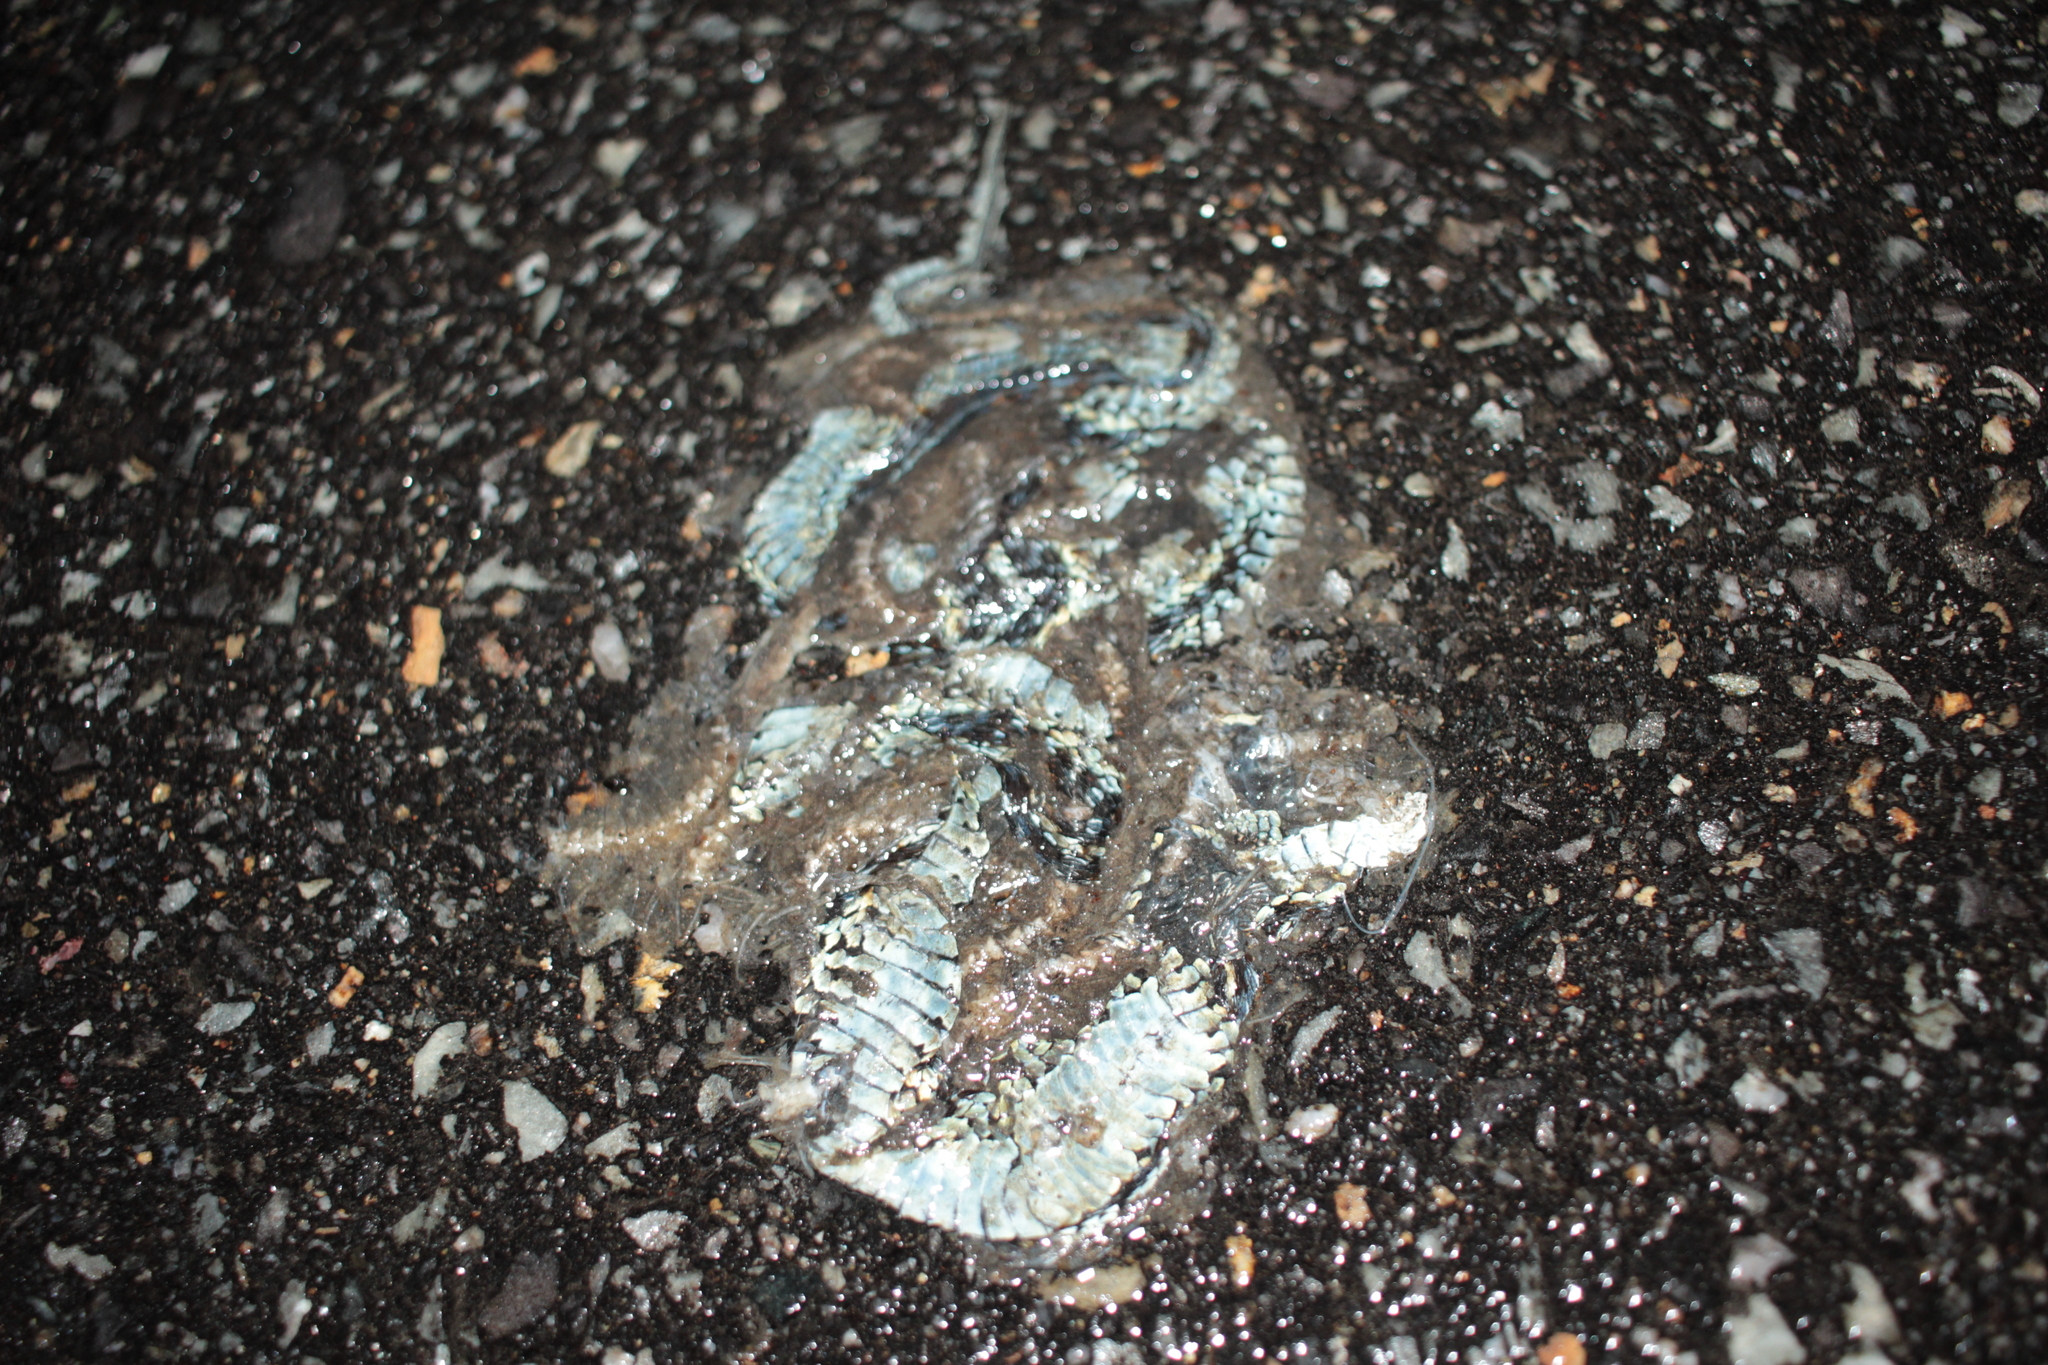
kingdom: Animalia
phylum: Chordata
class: Squamata
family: Colubridae
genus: Thamnophis
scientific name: Thamnophis sirtalis
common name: Common garter snake
